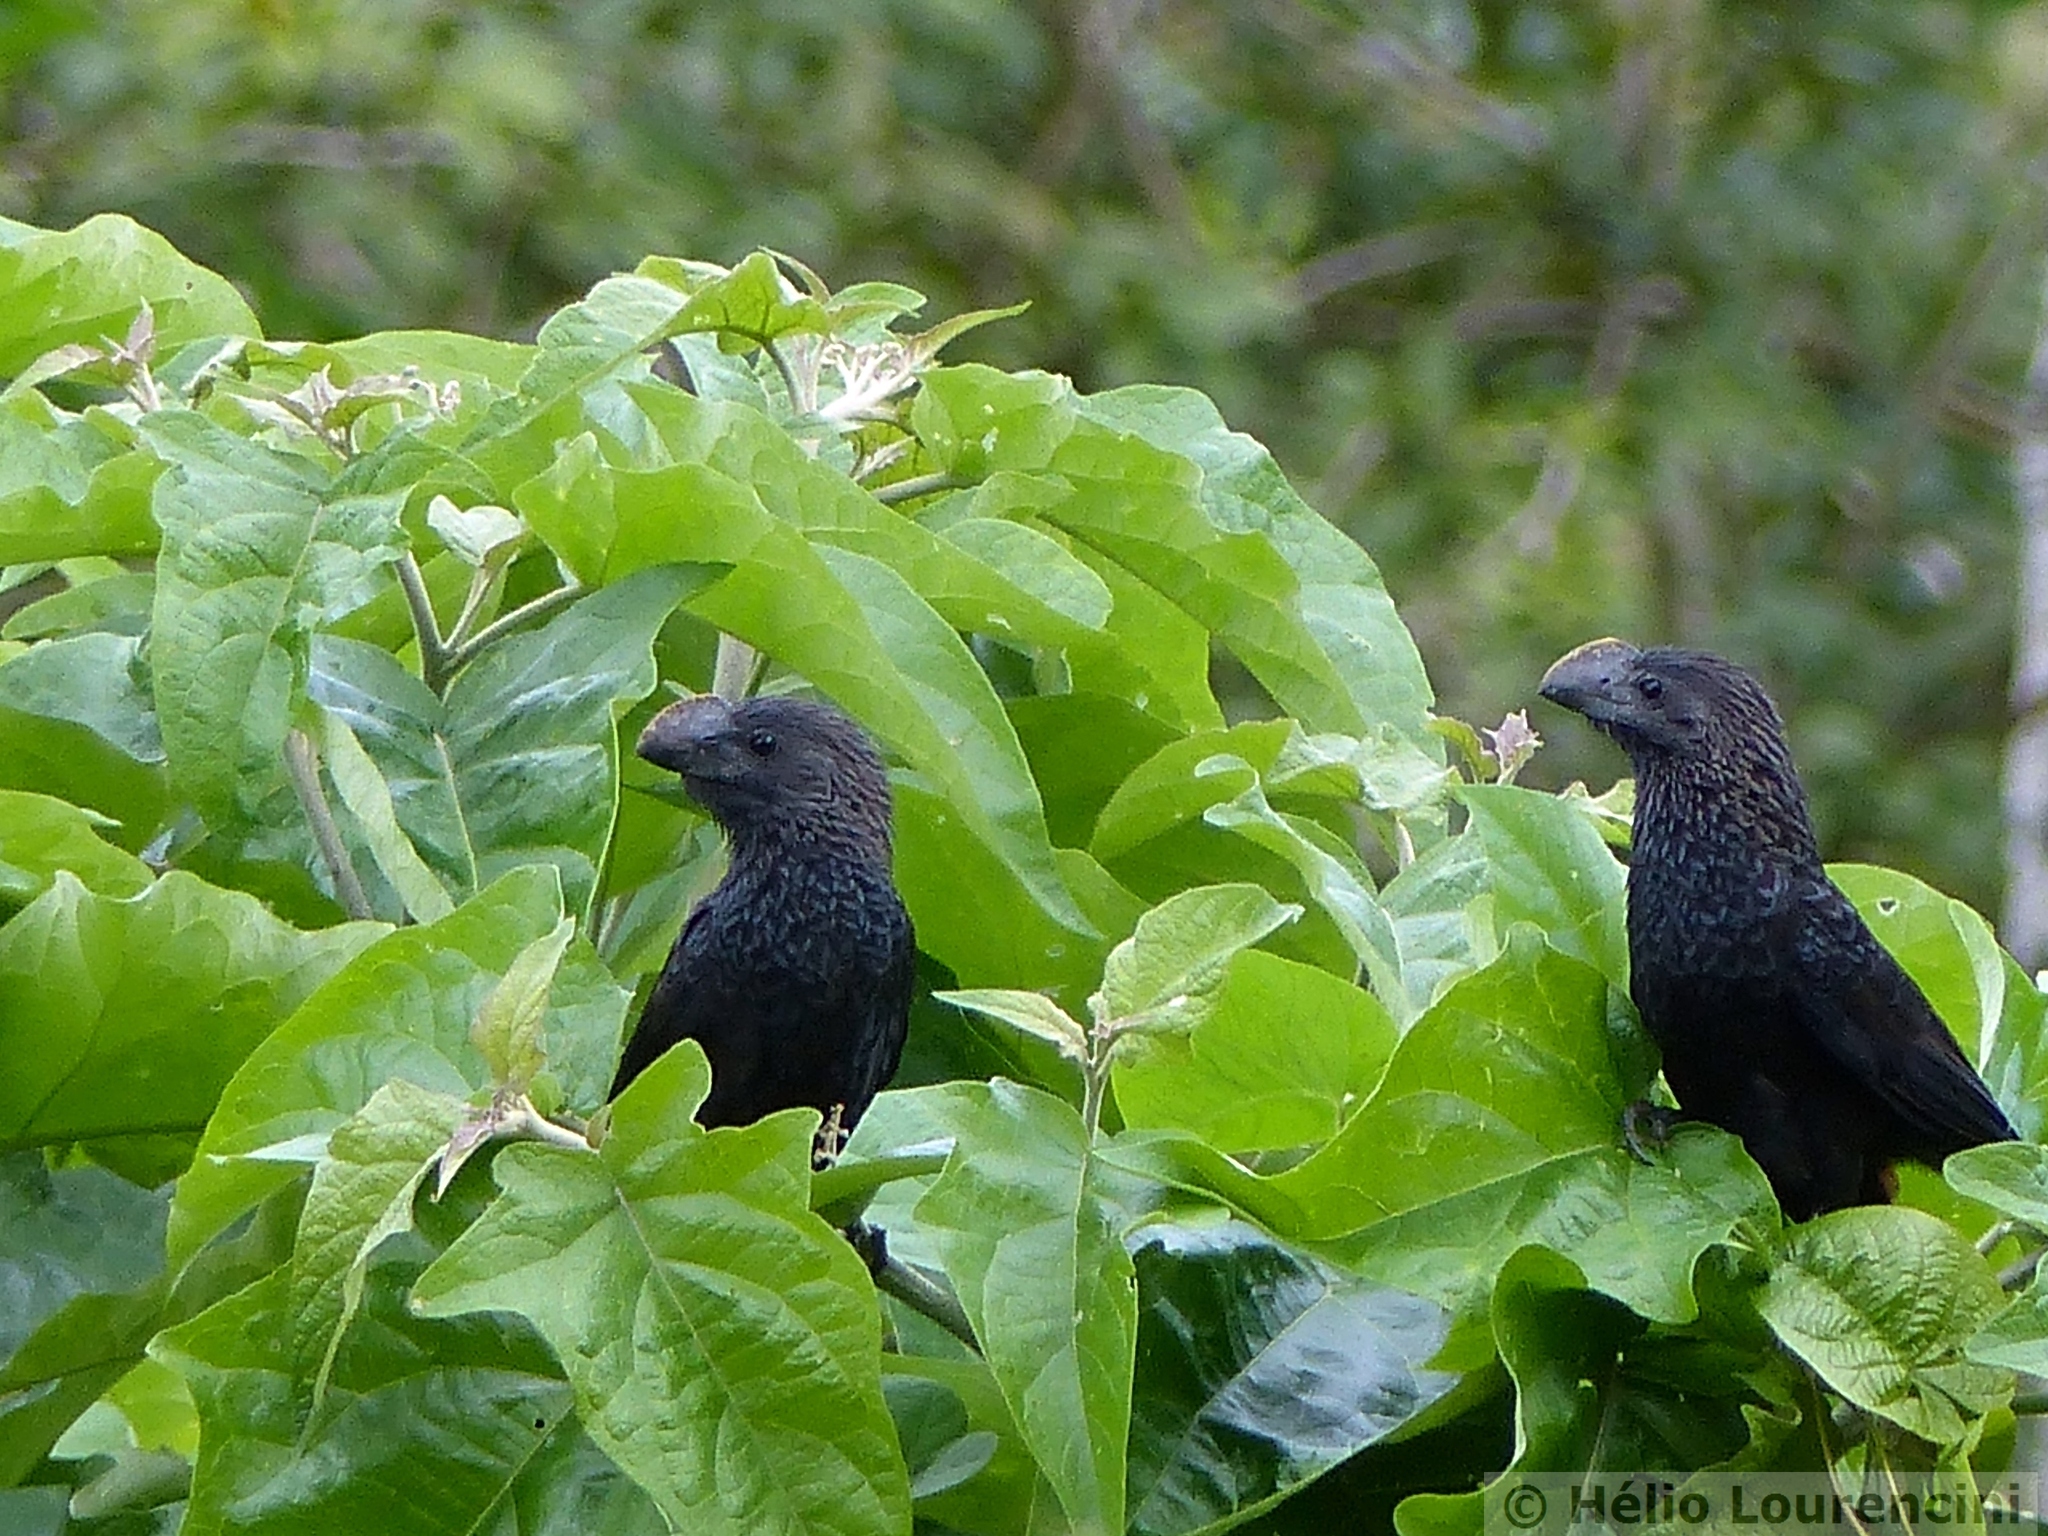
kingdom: Animalia
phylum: Chordata
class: Aves
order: Cuculiformes
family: Cuculidae
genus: Crotophaga
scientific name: Crotophaga ani
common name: Smooth-billed ani
